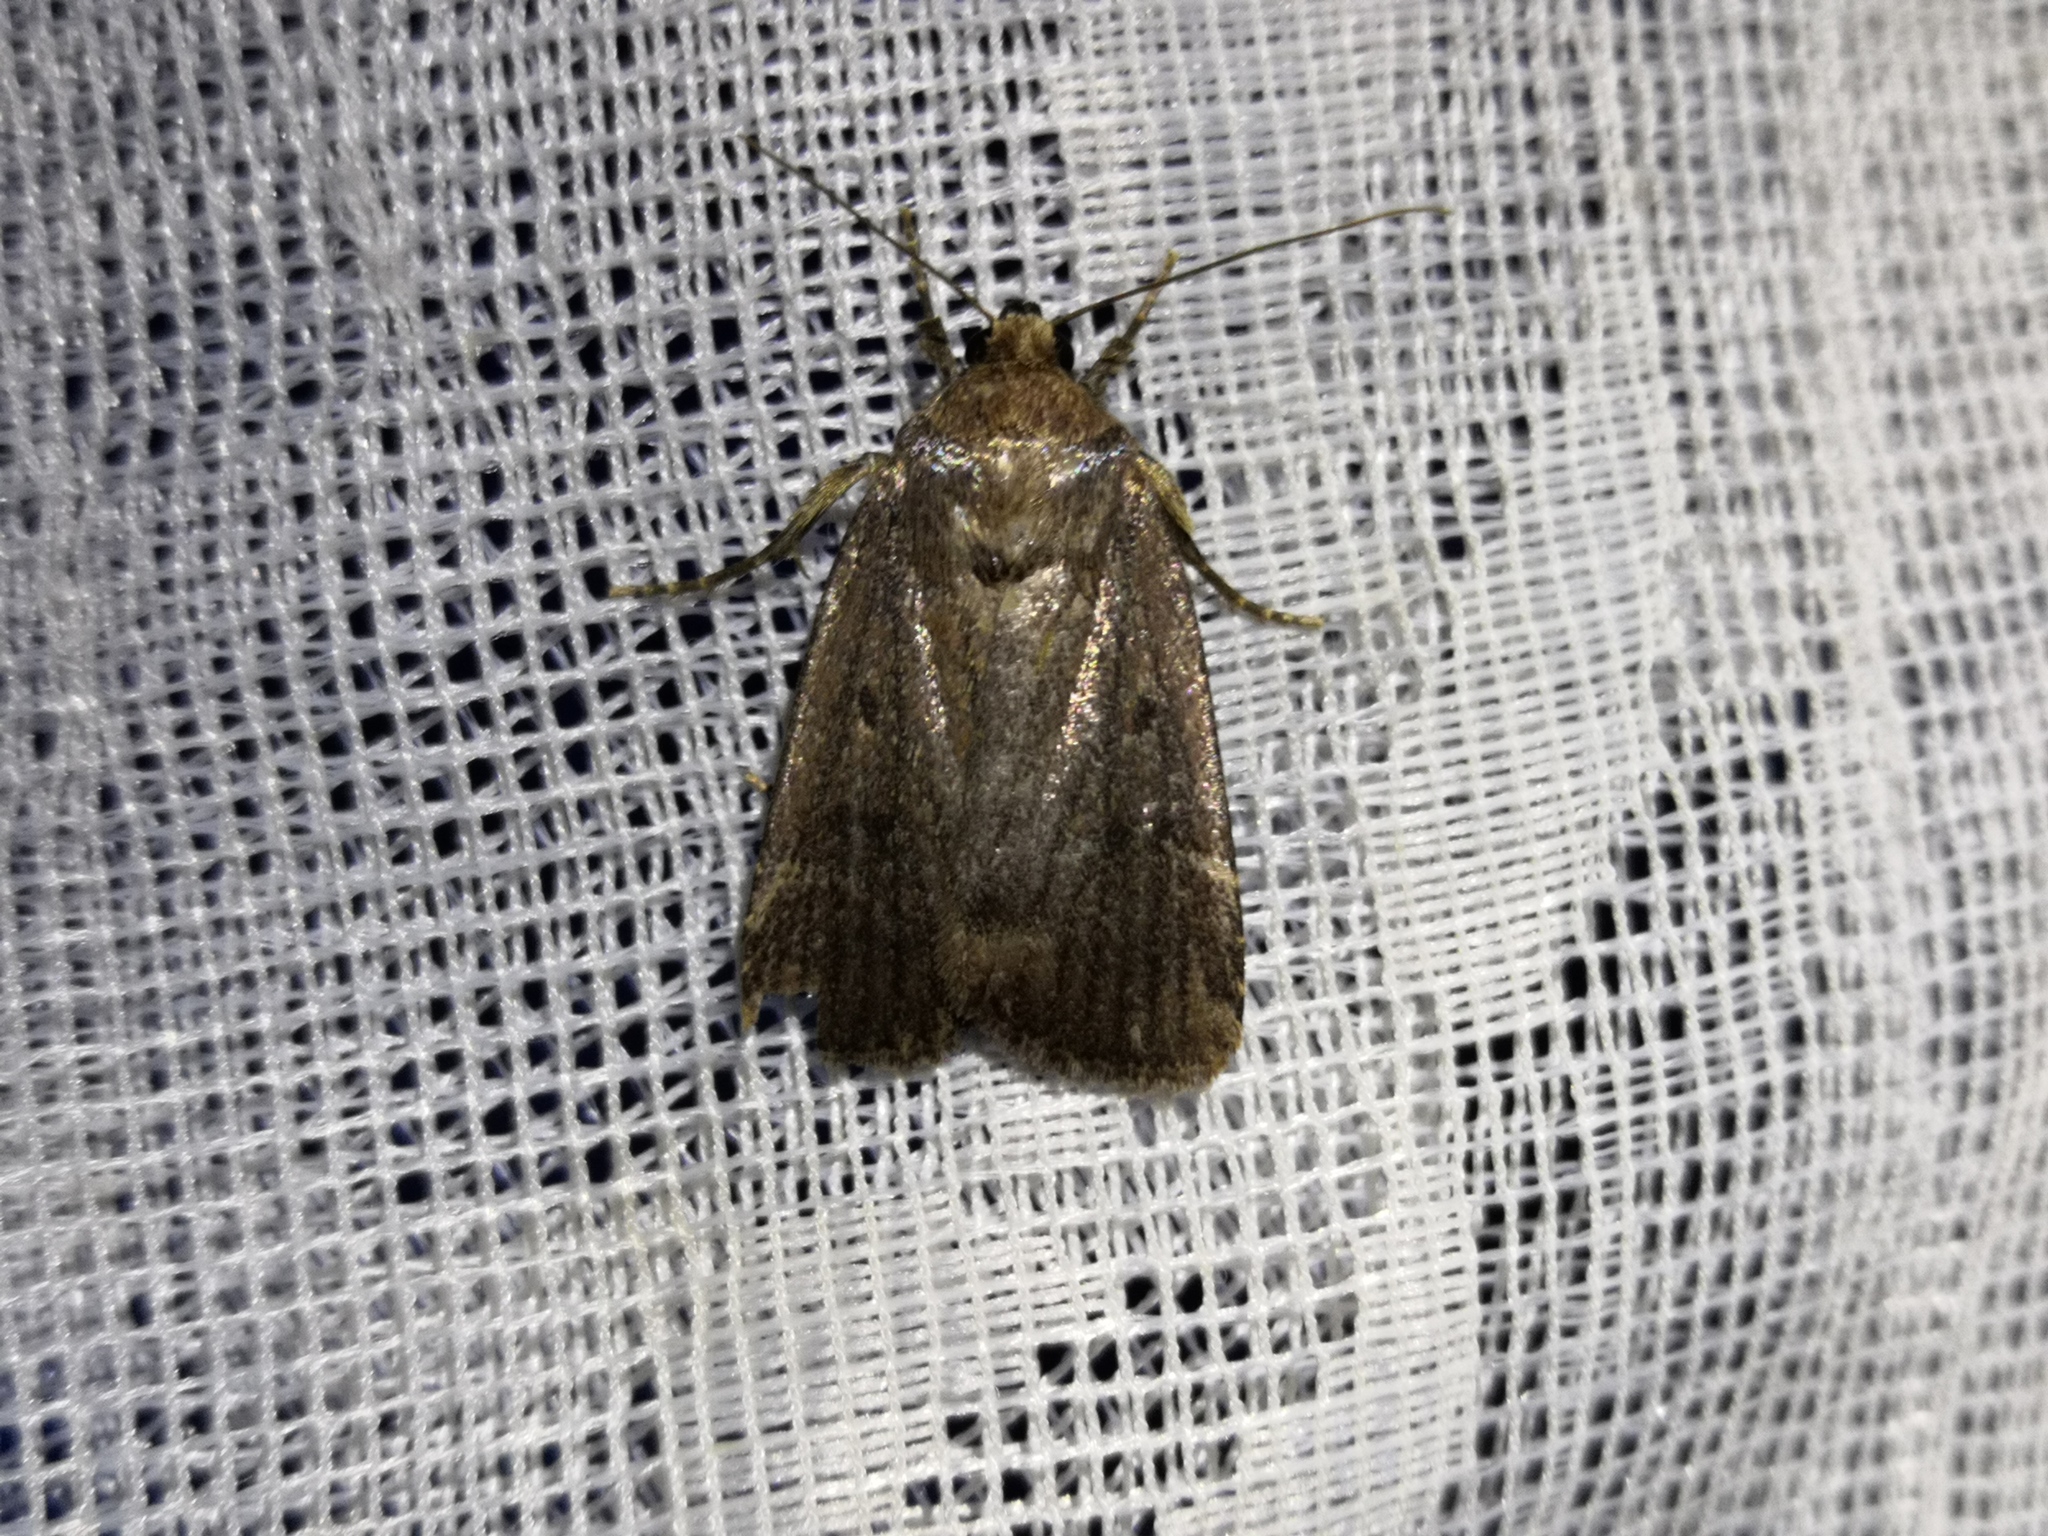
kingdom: Animalia
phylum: Arthropoda
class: Insecta
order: Lepidoptera
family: Noctuidae
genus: Amphipyra
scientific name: Amphipyra tragopoginis
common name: Mouse moth
